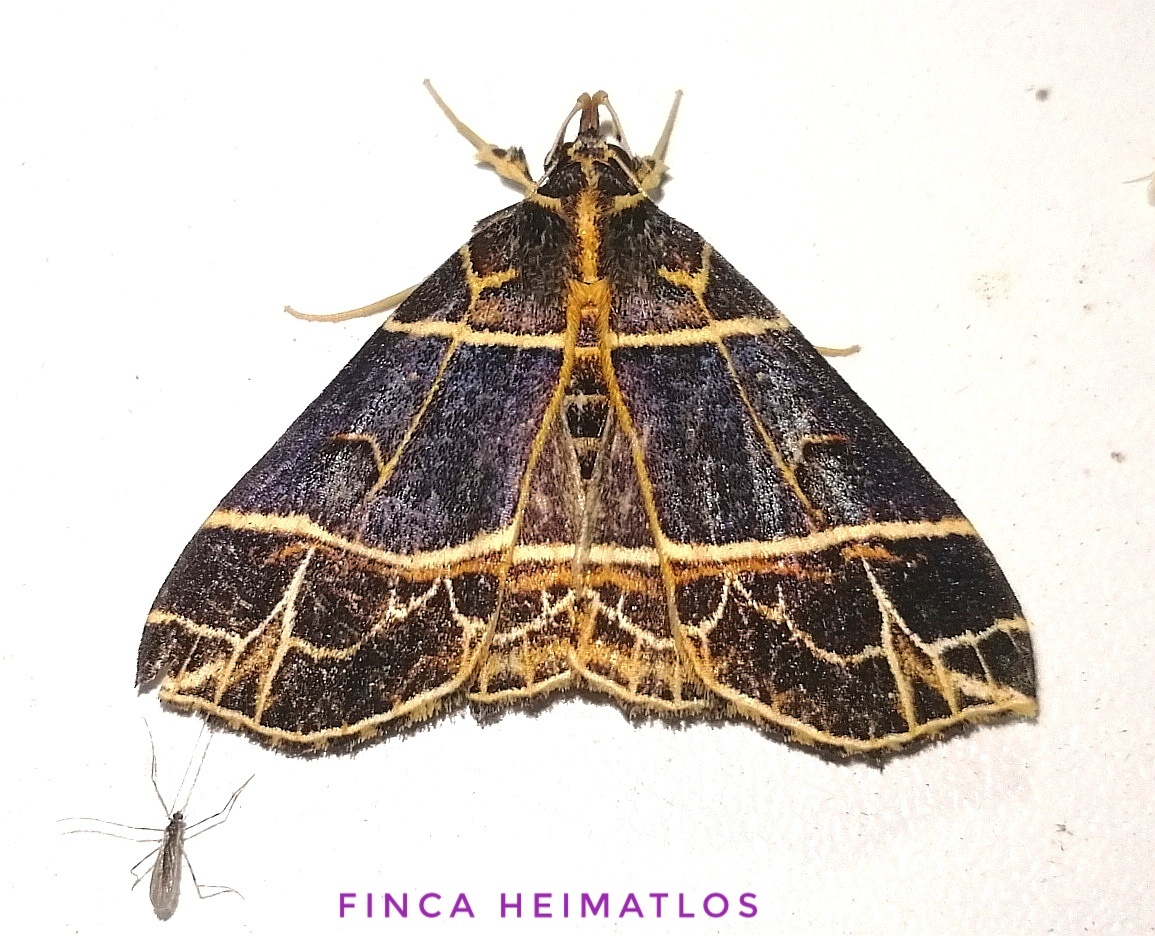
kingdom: Animalia
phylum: Arthropoda
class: Insecta
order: Lepidoptera
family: Erebidae
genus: Rejectaria
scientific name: Rejectaria niciasalis
